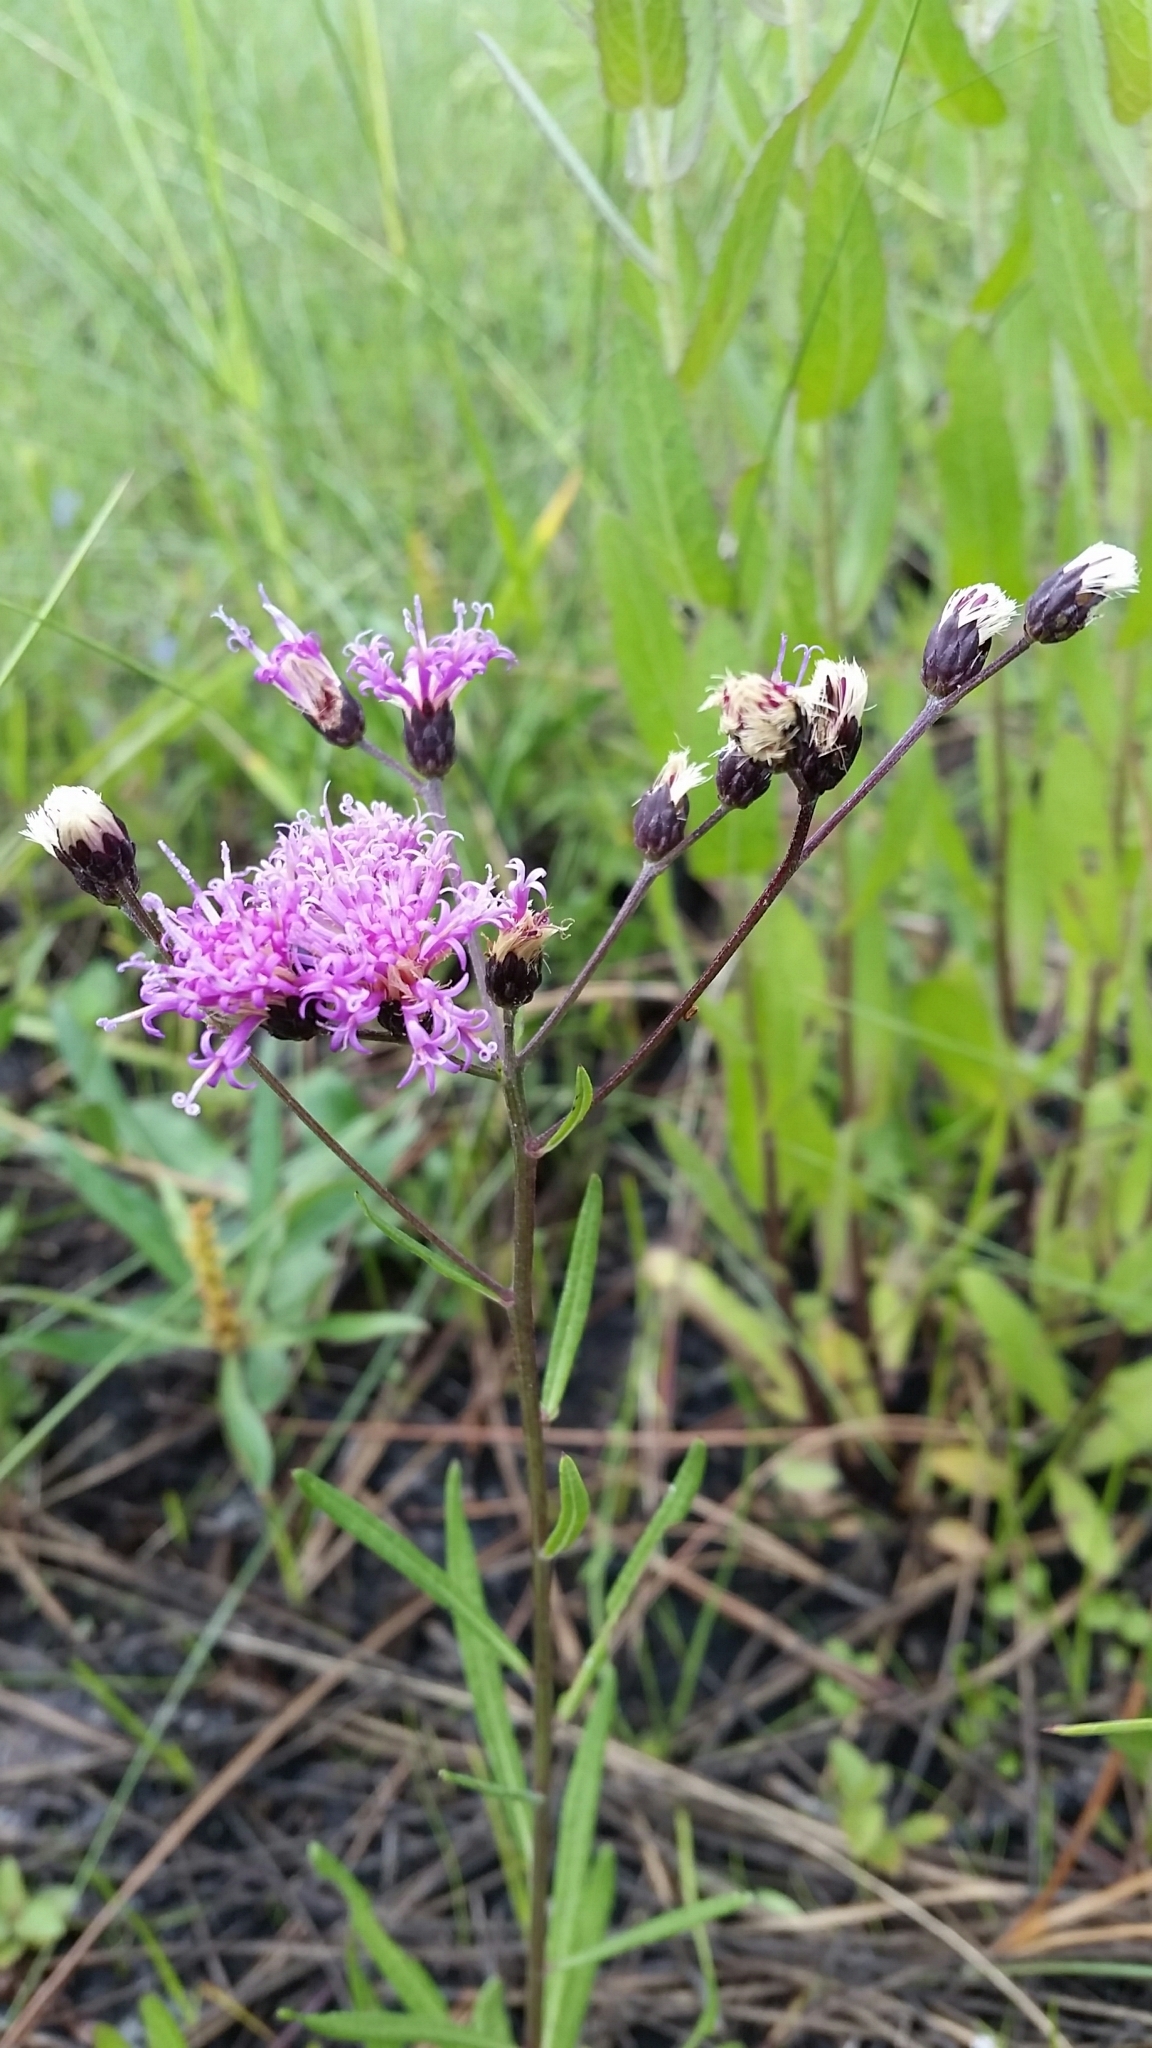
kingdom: Plantae
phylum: Tracheophyta
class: Magnoliopsida
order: Asterales
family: Asteraceae
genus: Vernonia
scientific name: Vernonia blodgettii
